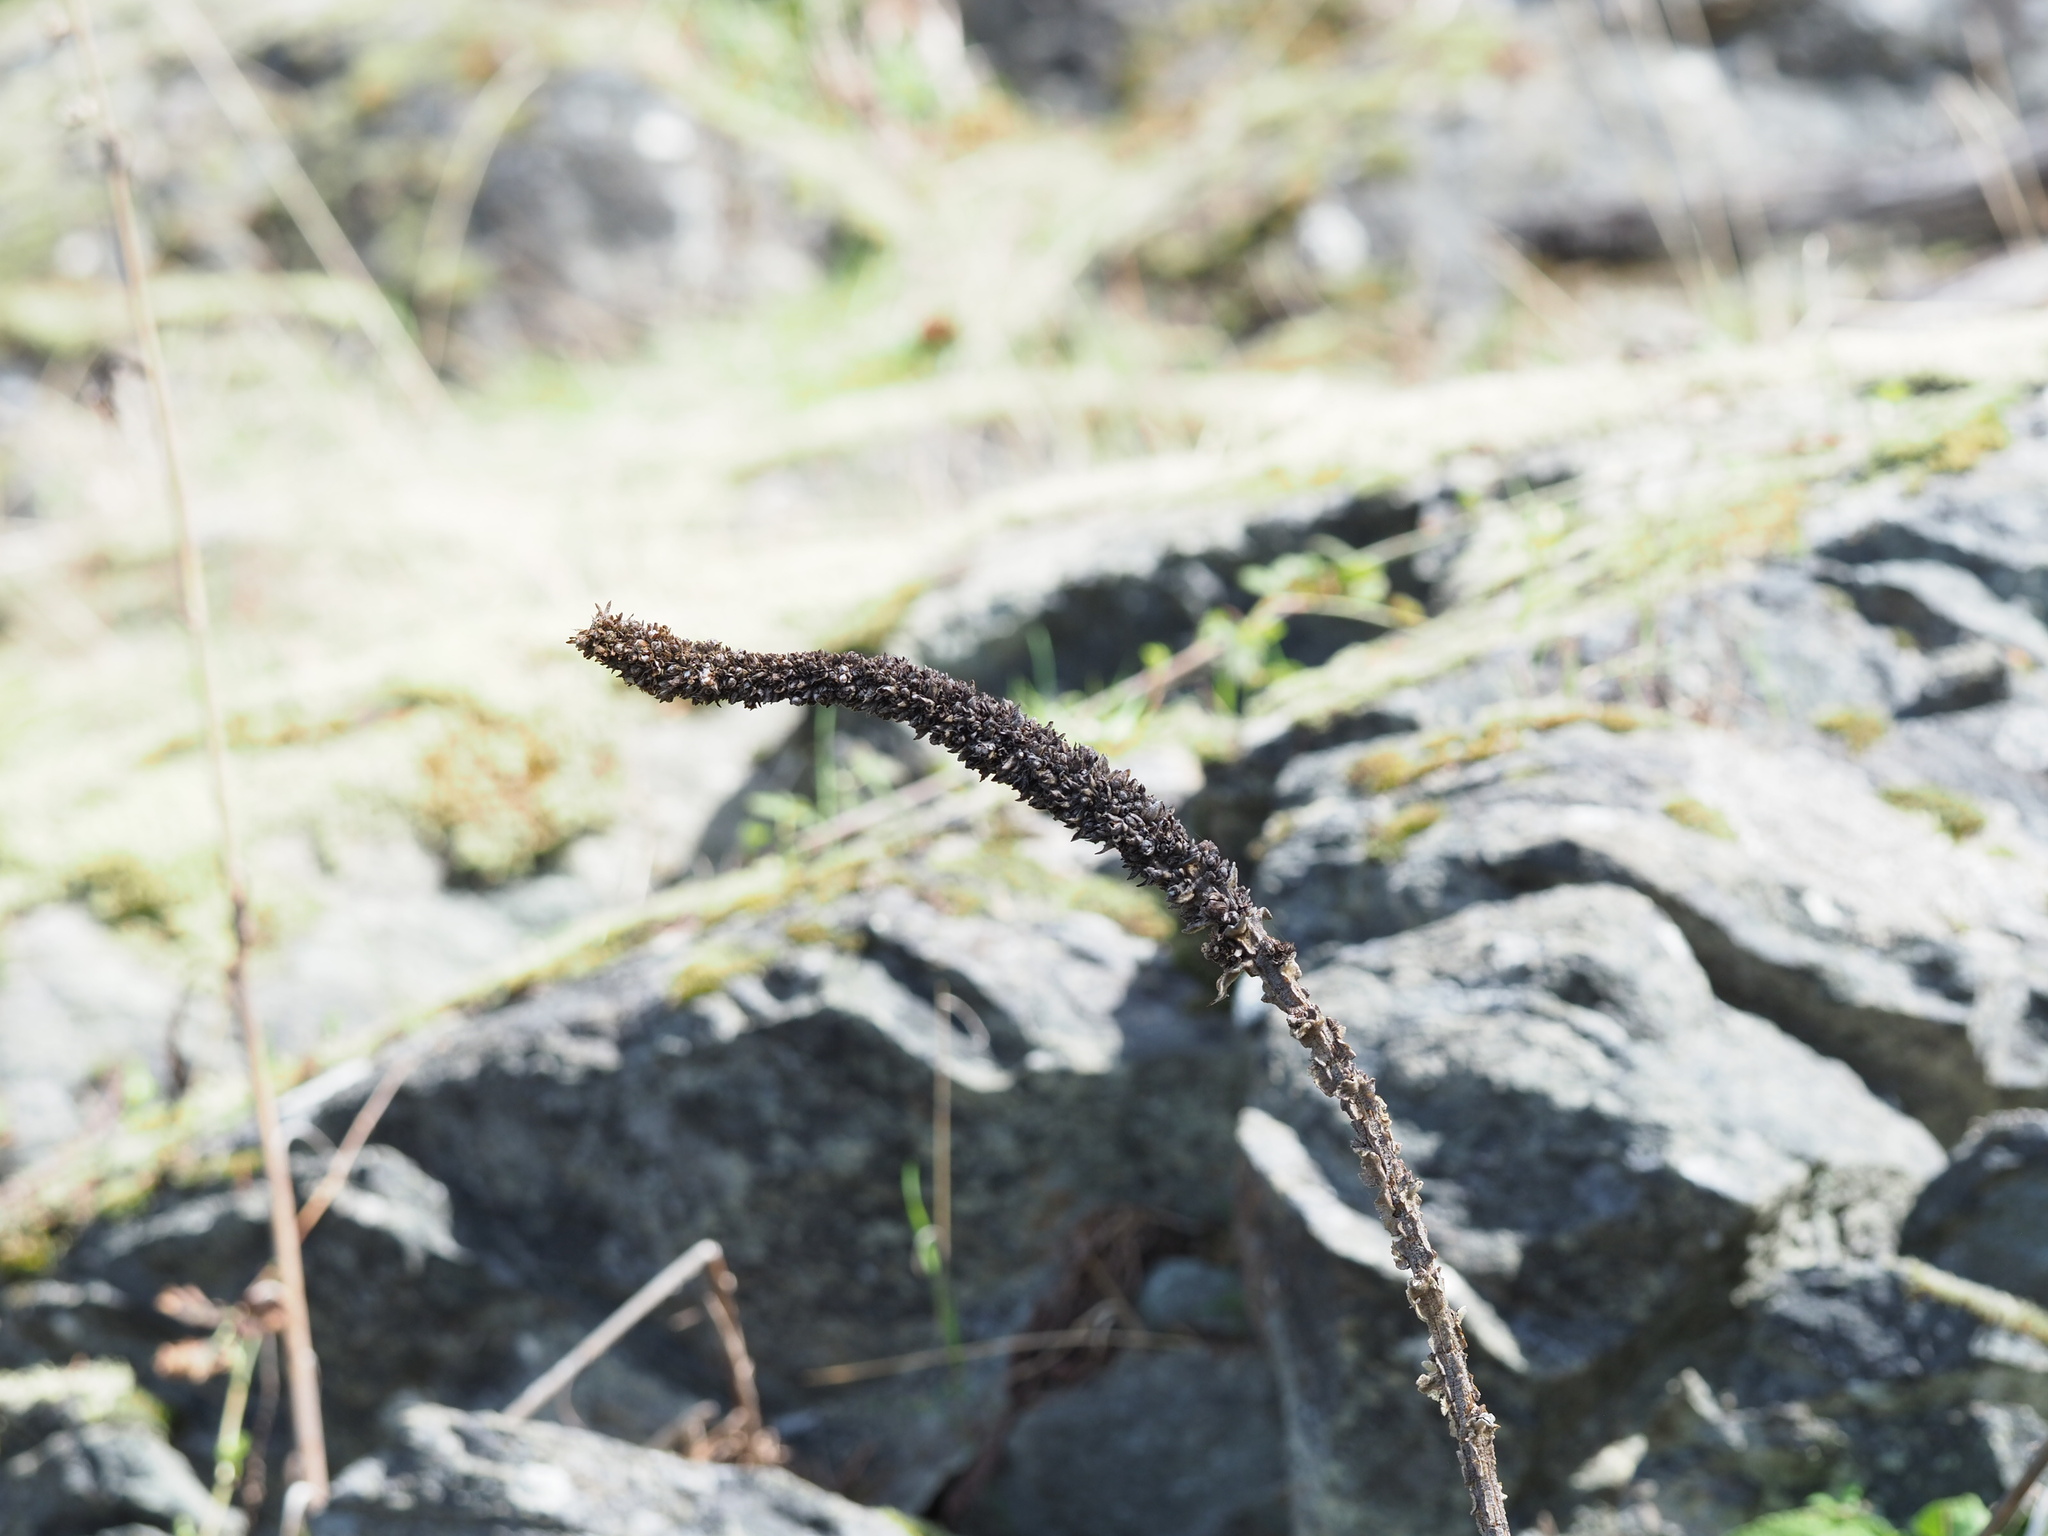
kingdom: Plantae
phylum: Tracheophyta
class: Magnoliopsida
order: Lamiales
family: Scrophulariaceae
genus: Verbascum
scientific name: Verbascum thapsus
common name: Common mullein
